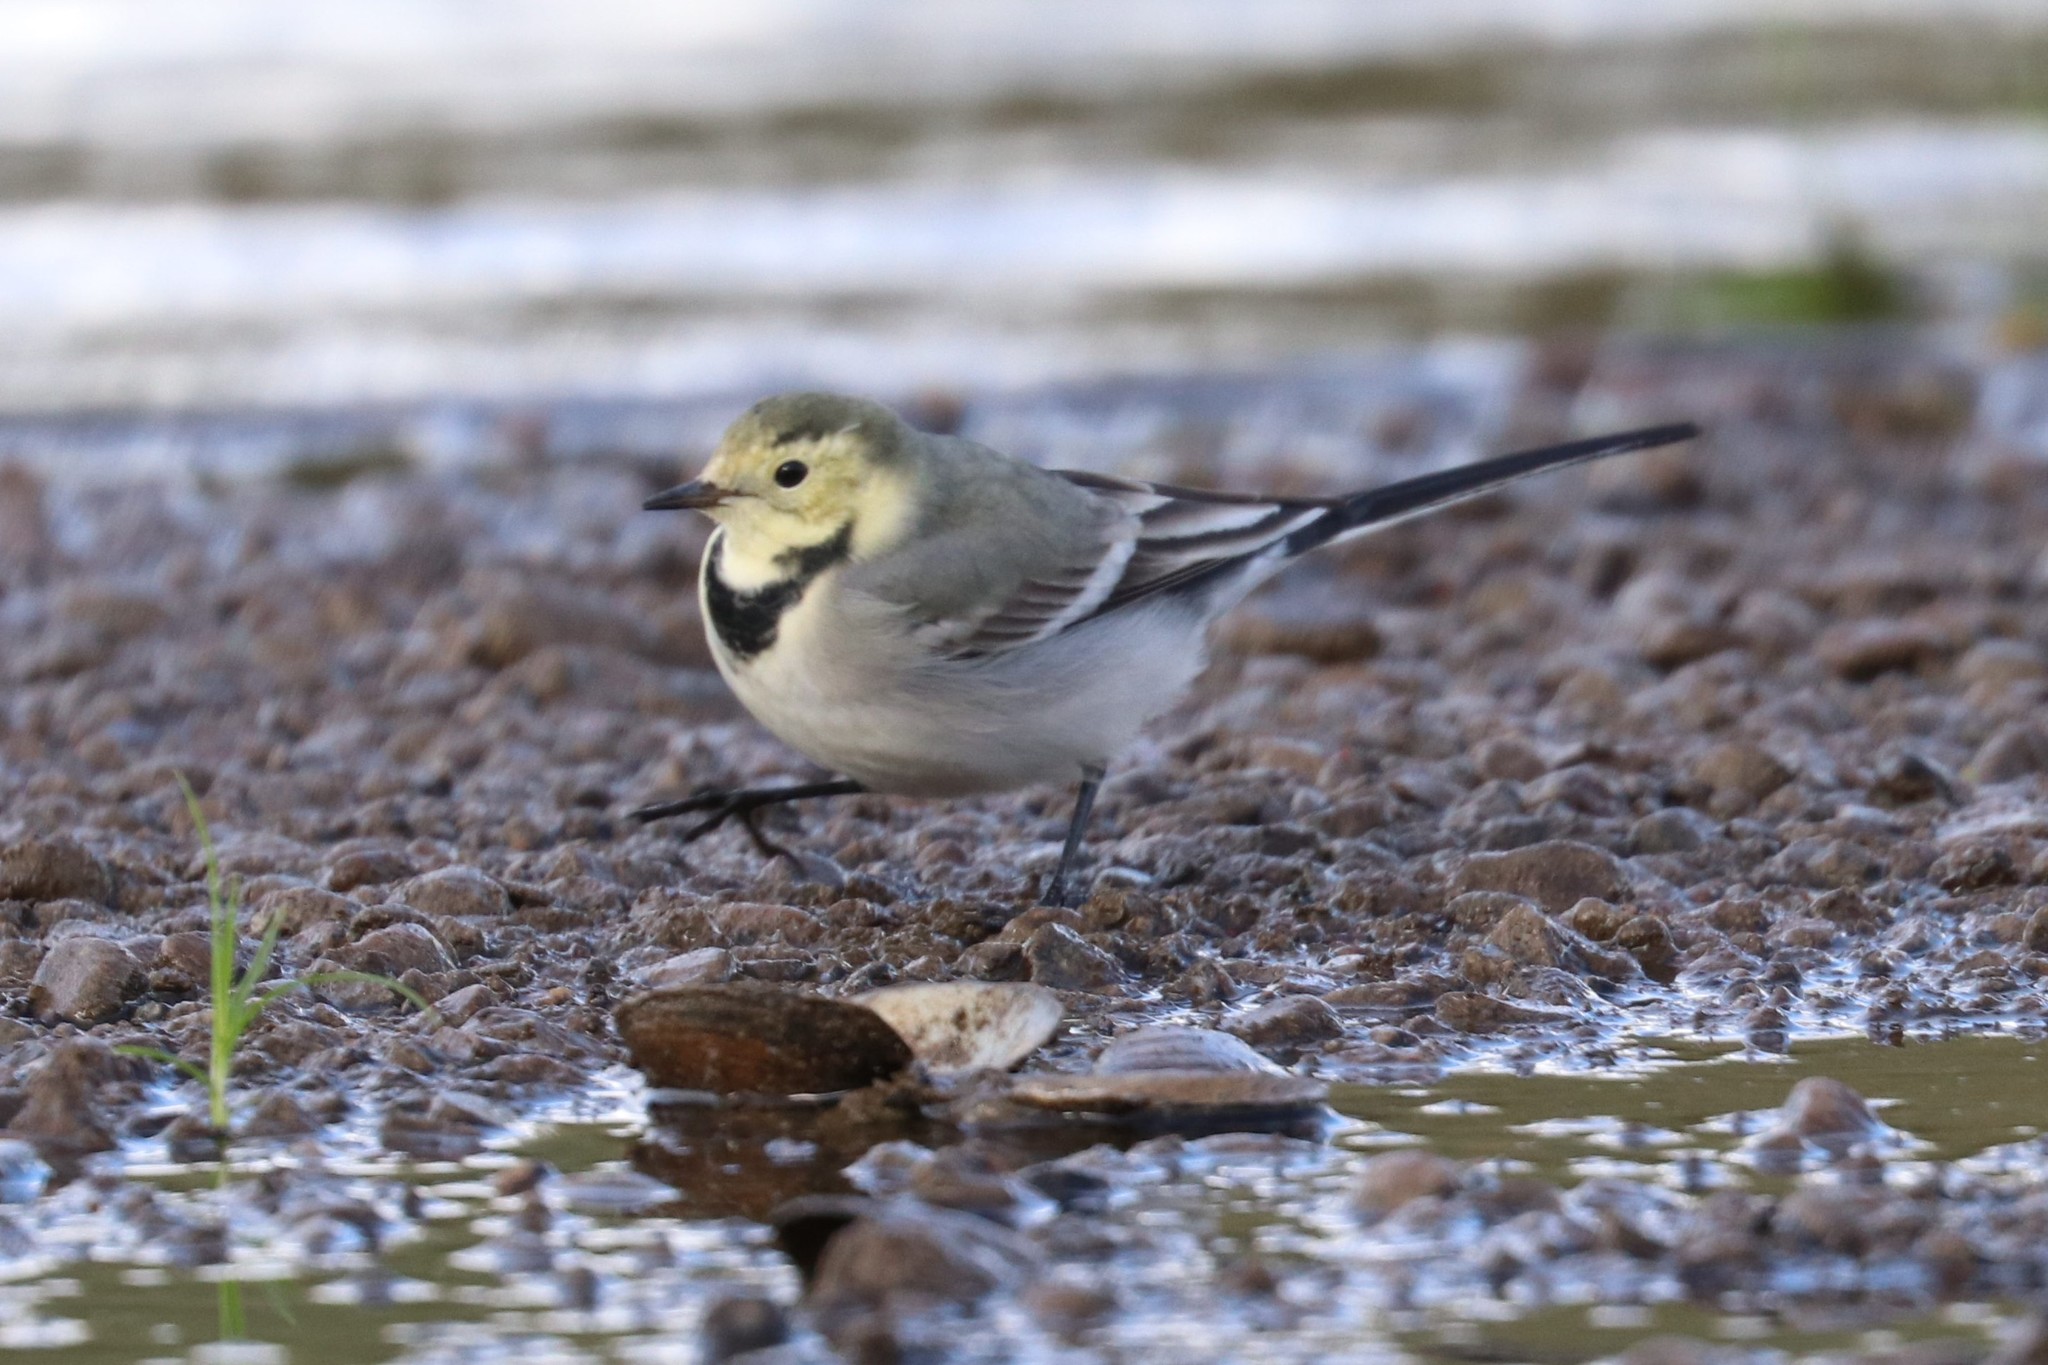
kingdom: Animalia
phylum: Chordata
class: Aves
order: Passeriformes
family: Motacillidae
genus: Motacilla
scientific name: Motacilla alba
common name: White wagtail
